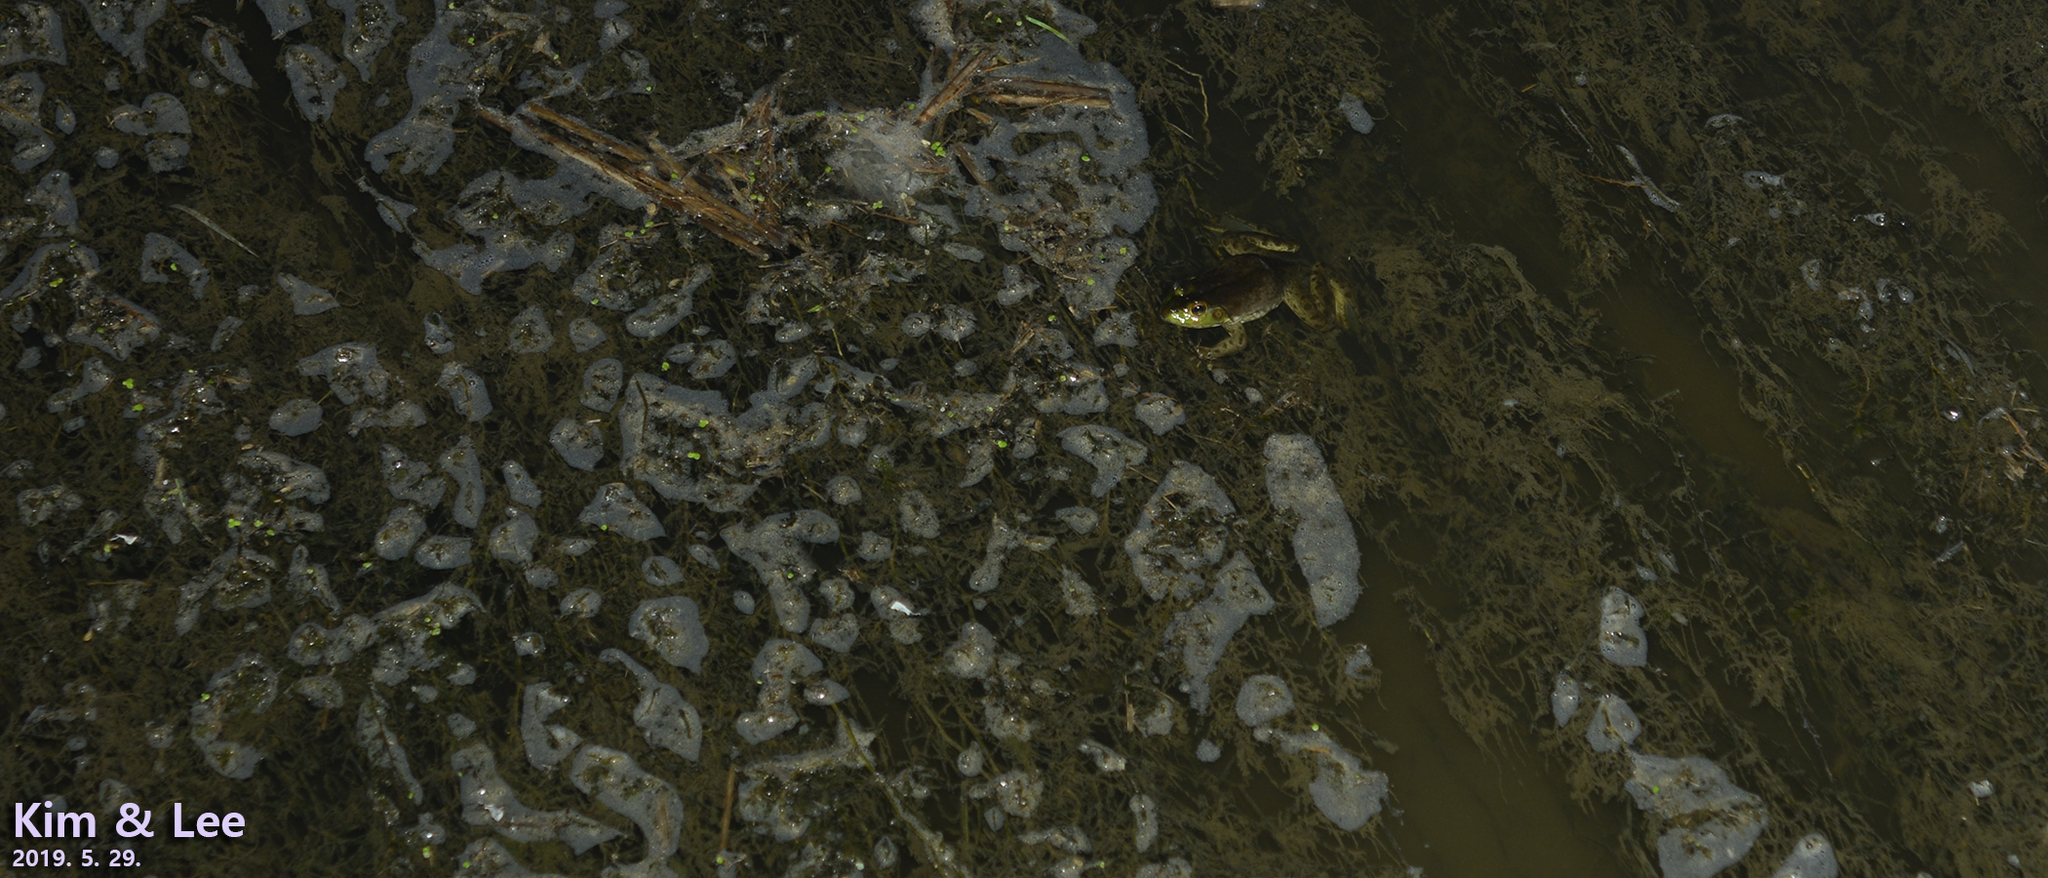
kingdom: Animalia
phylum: Chordata
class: Amphibia
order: Anura
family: Ranidae
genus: Lithobates
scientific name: Lithobates catesbeianus
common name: American bullfrog
